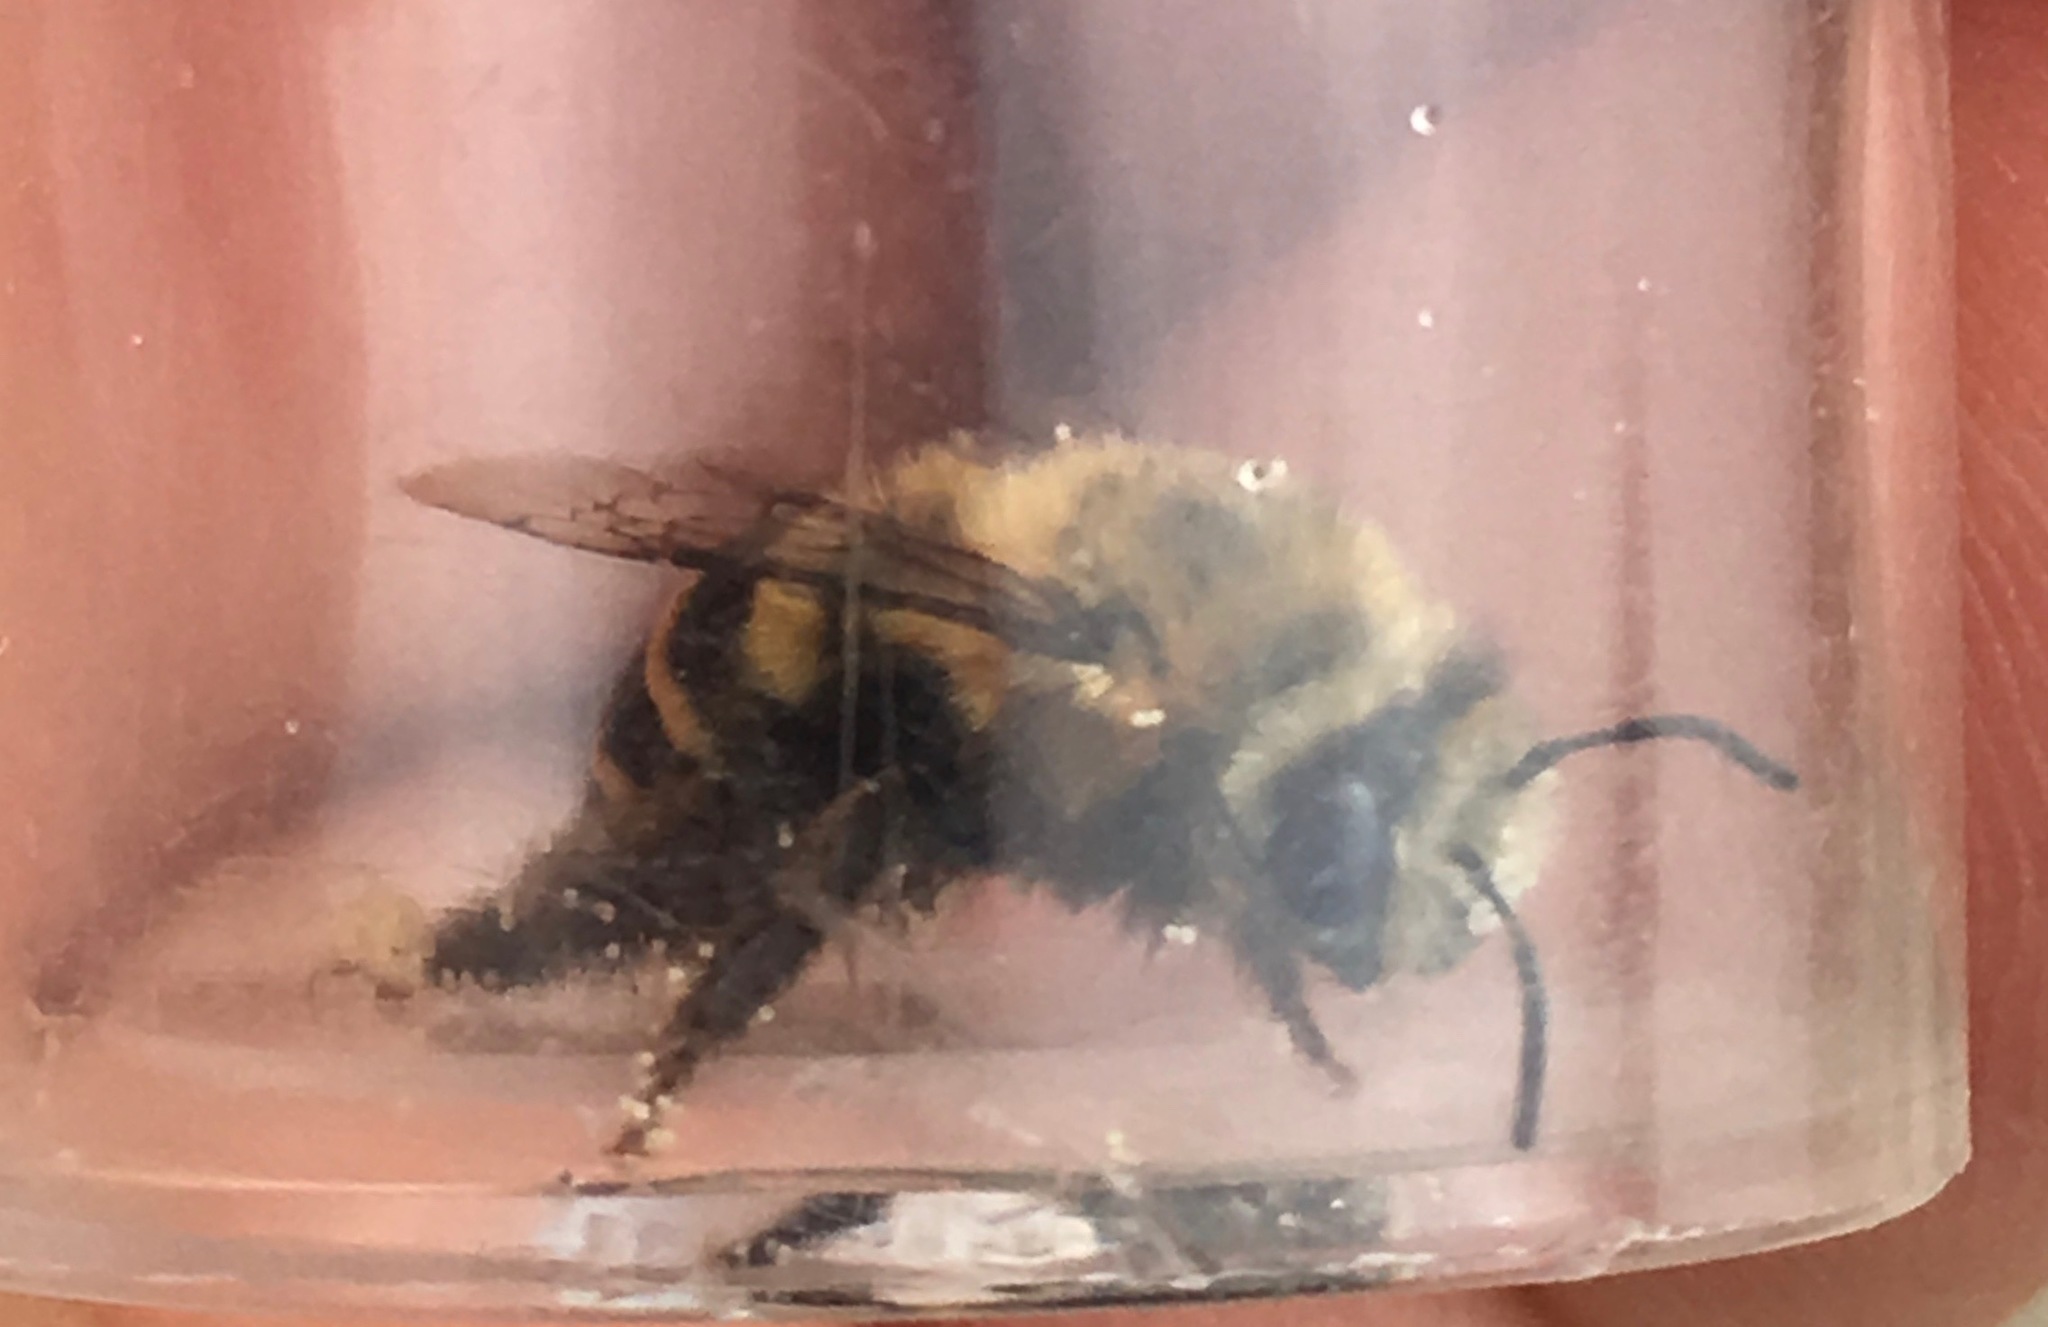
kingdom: Animalia
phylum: Arthropoda
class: Insecta
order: Hymenoptera
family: Apidae
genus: Anthophora
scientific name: Anthophora urbana
